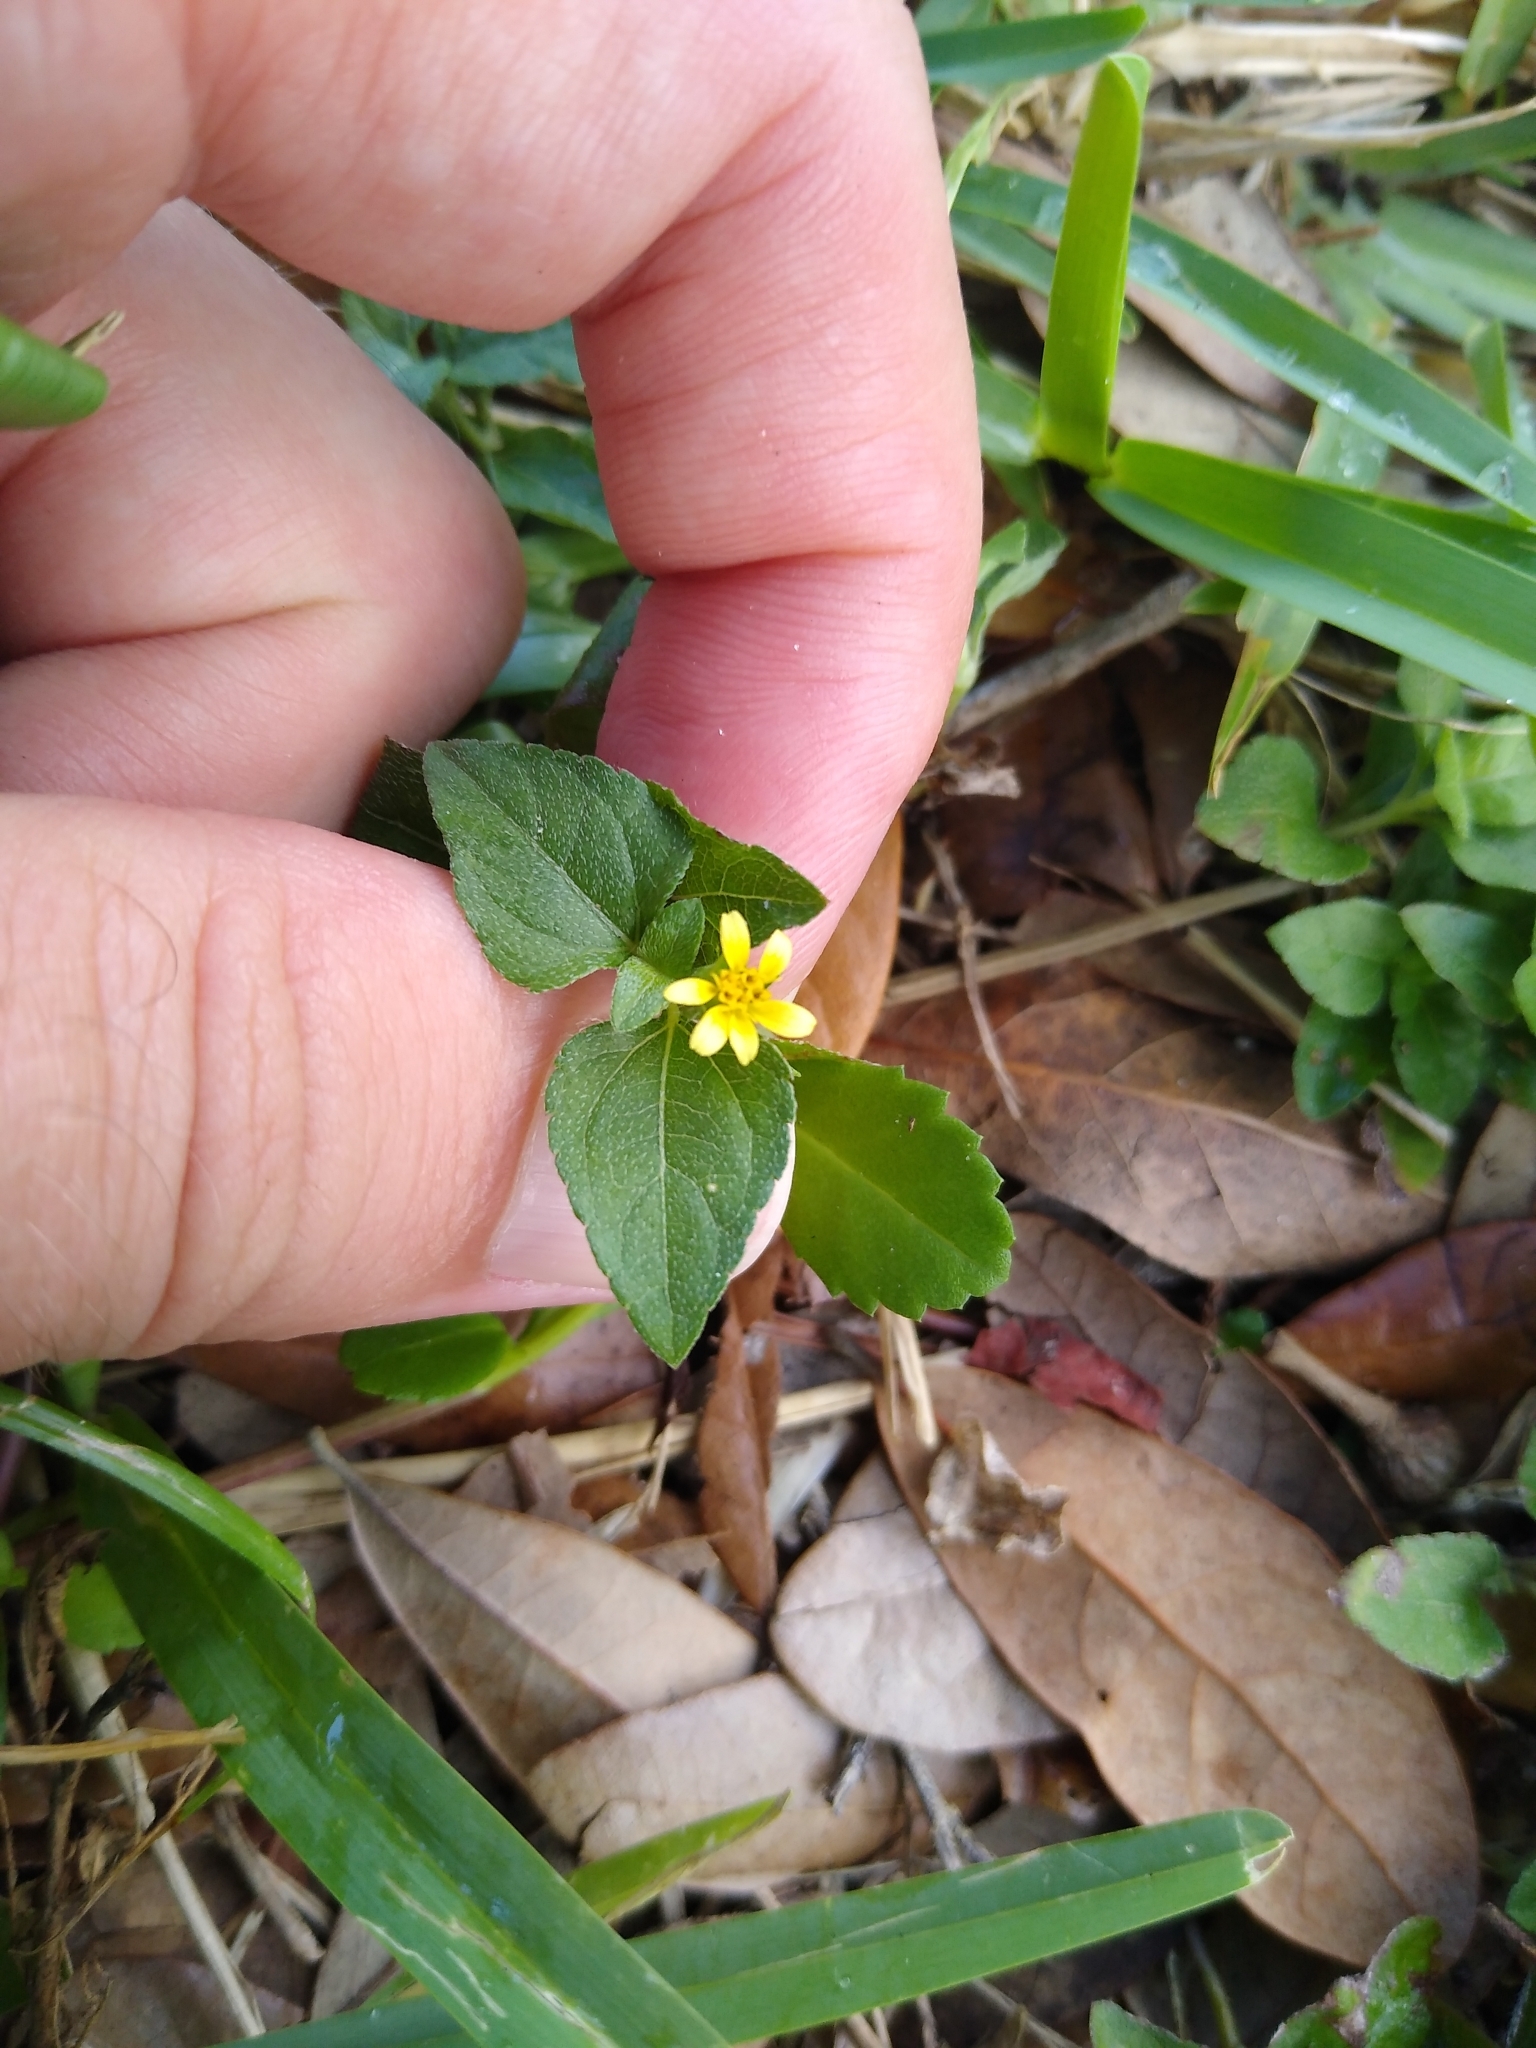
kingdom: Plantae
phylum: Tracheophyta
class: Magnoliopsida
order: Asterales
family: Asteraceae
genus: Calyptocarpus
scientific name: Calyptocarpus vialis
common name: Straggler daisy
